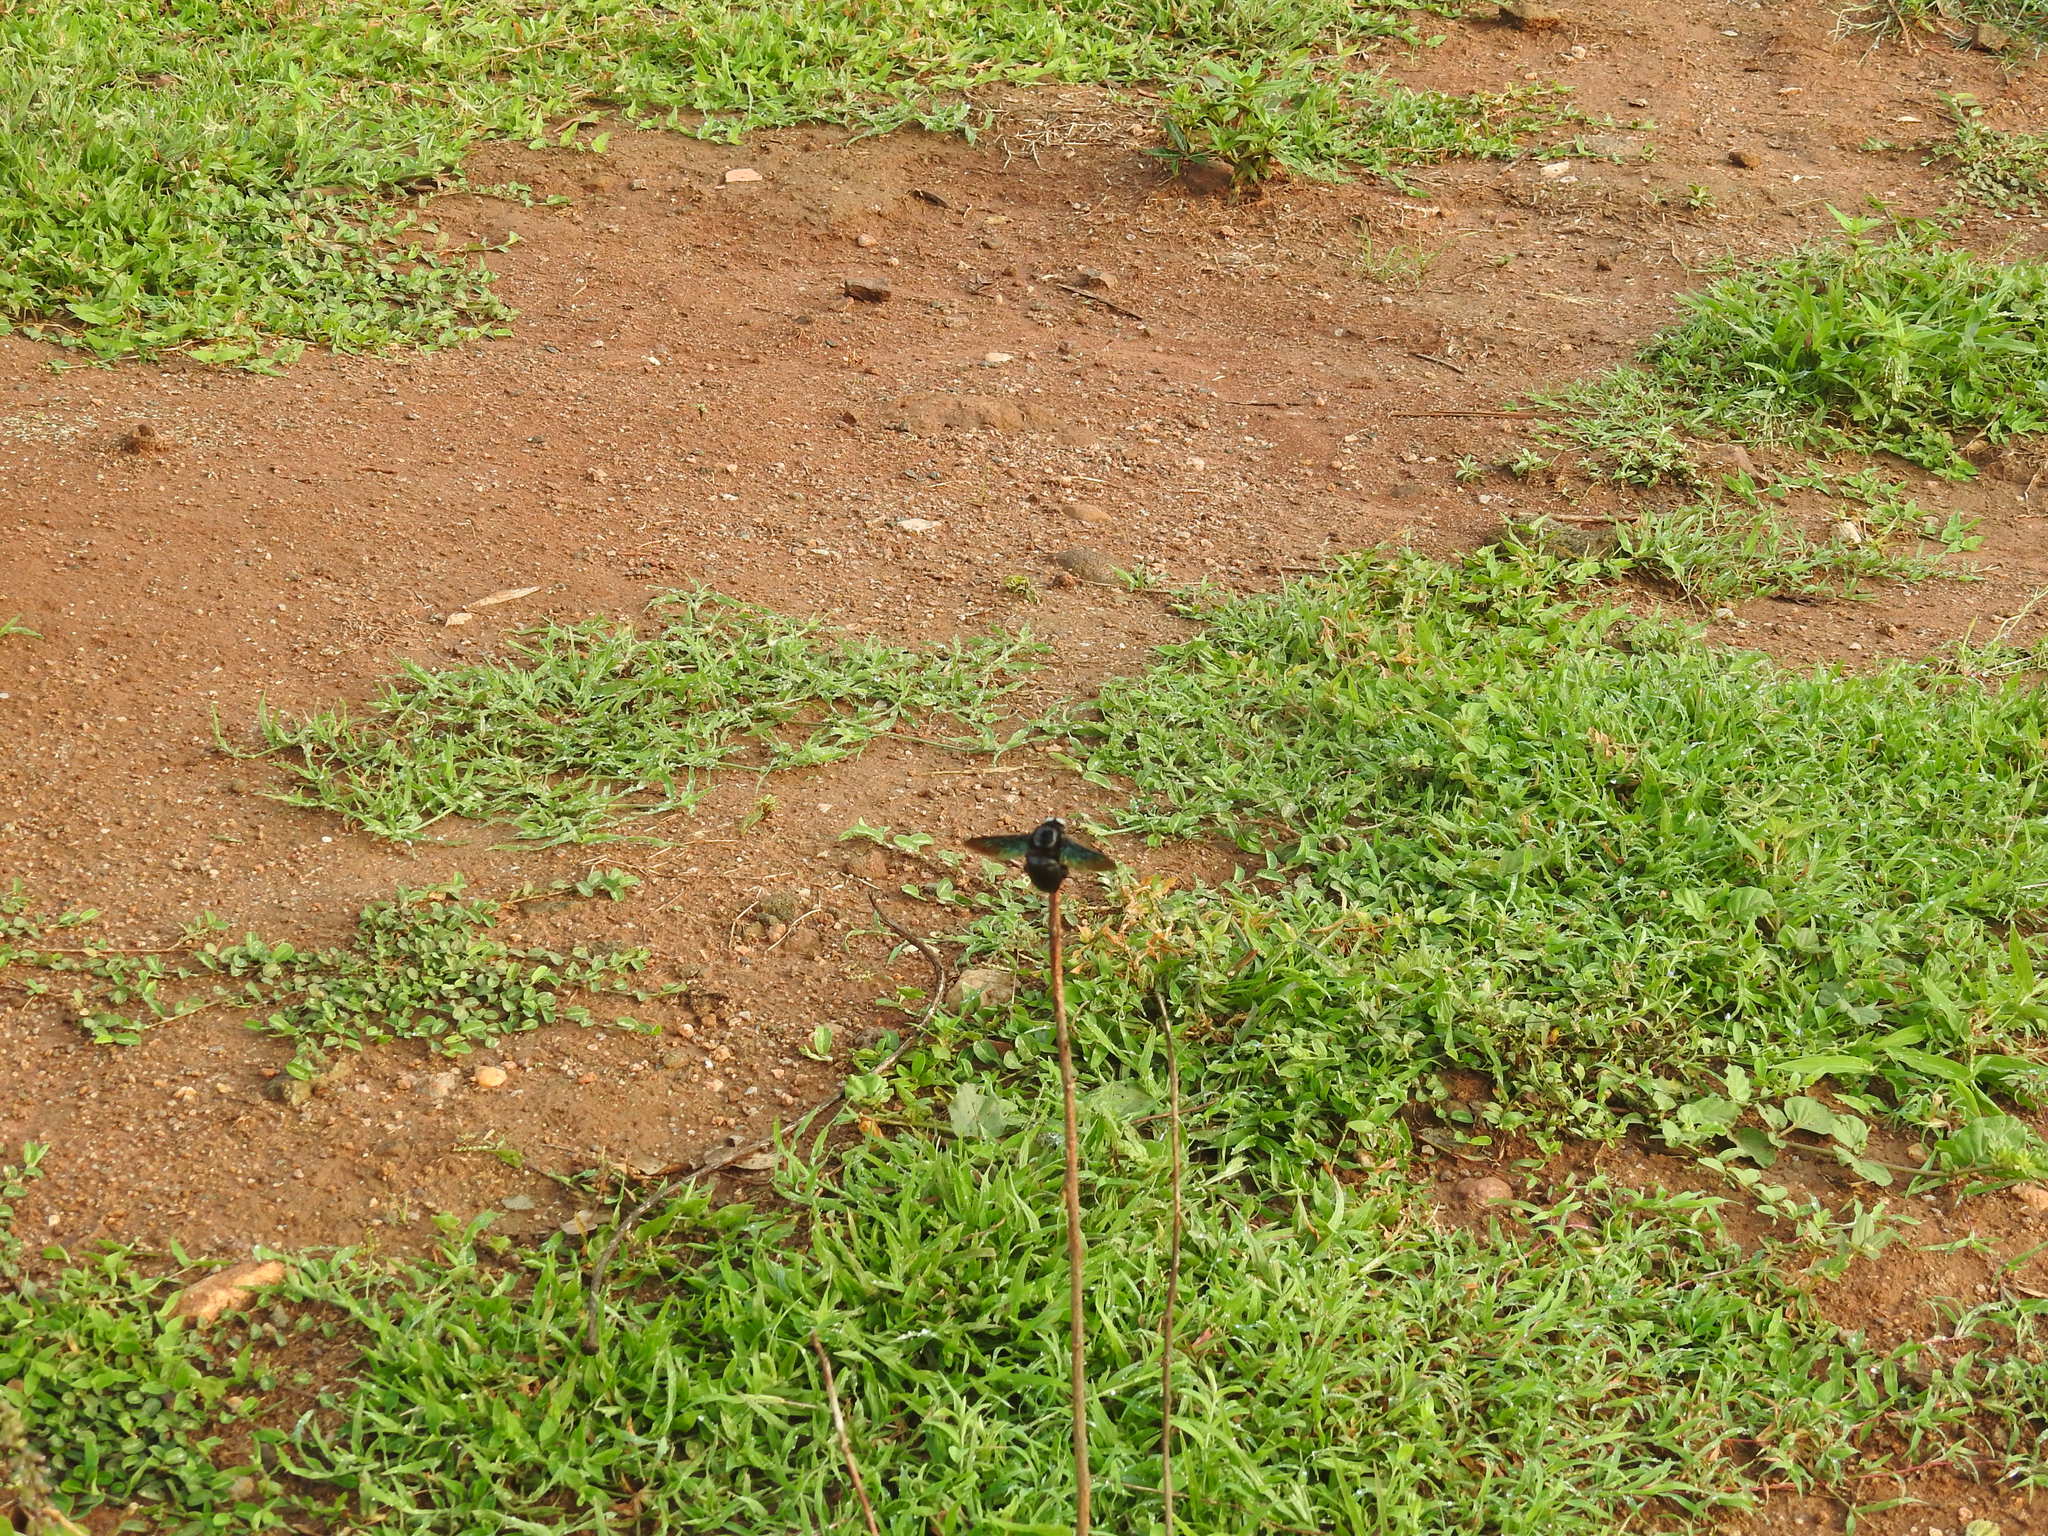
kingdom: Animalia
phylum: Arthropoda
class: Insecta
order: Hymenoptera
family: Apidae
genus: Xylocopa
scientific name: Xylocopa tenuiscapa
